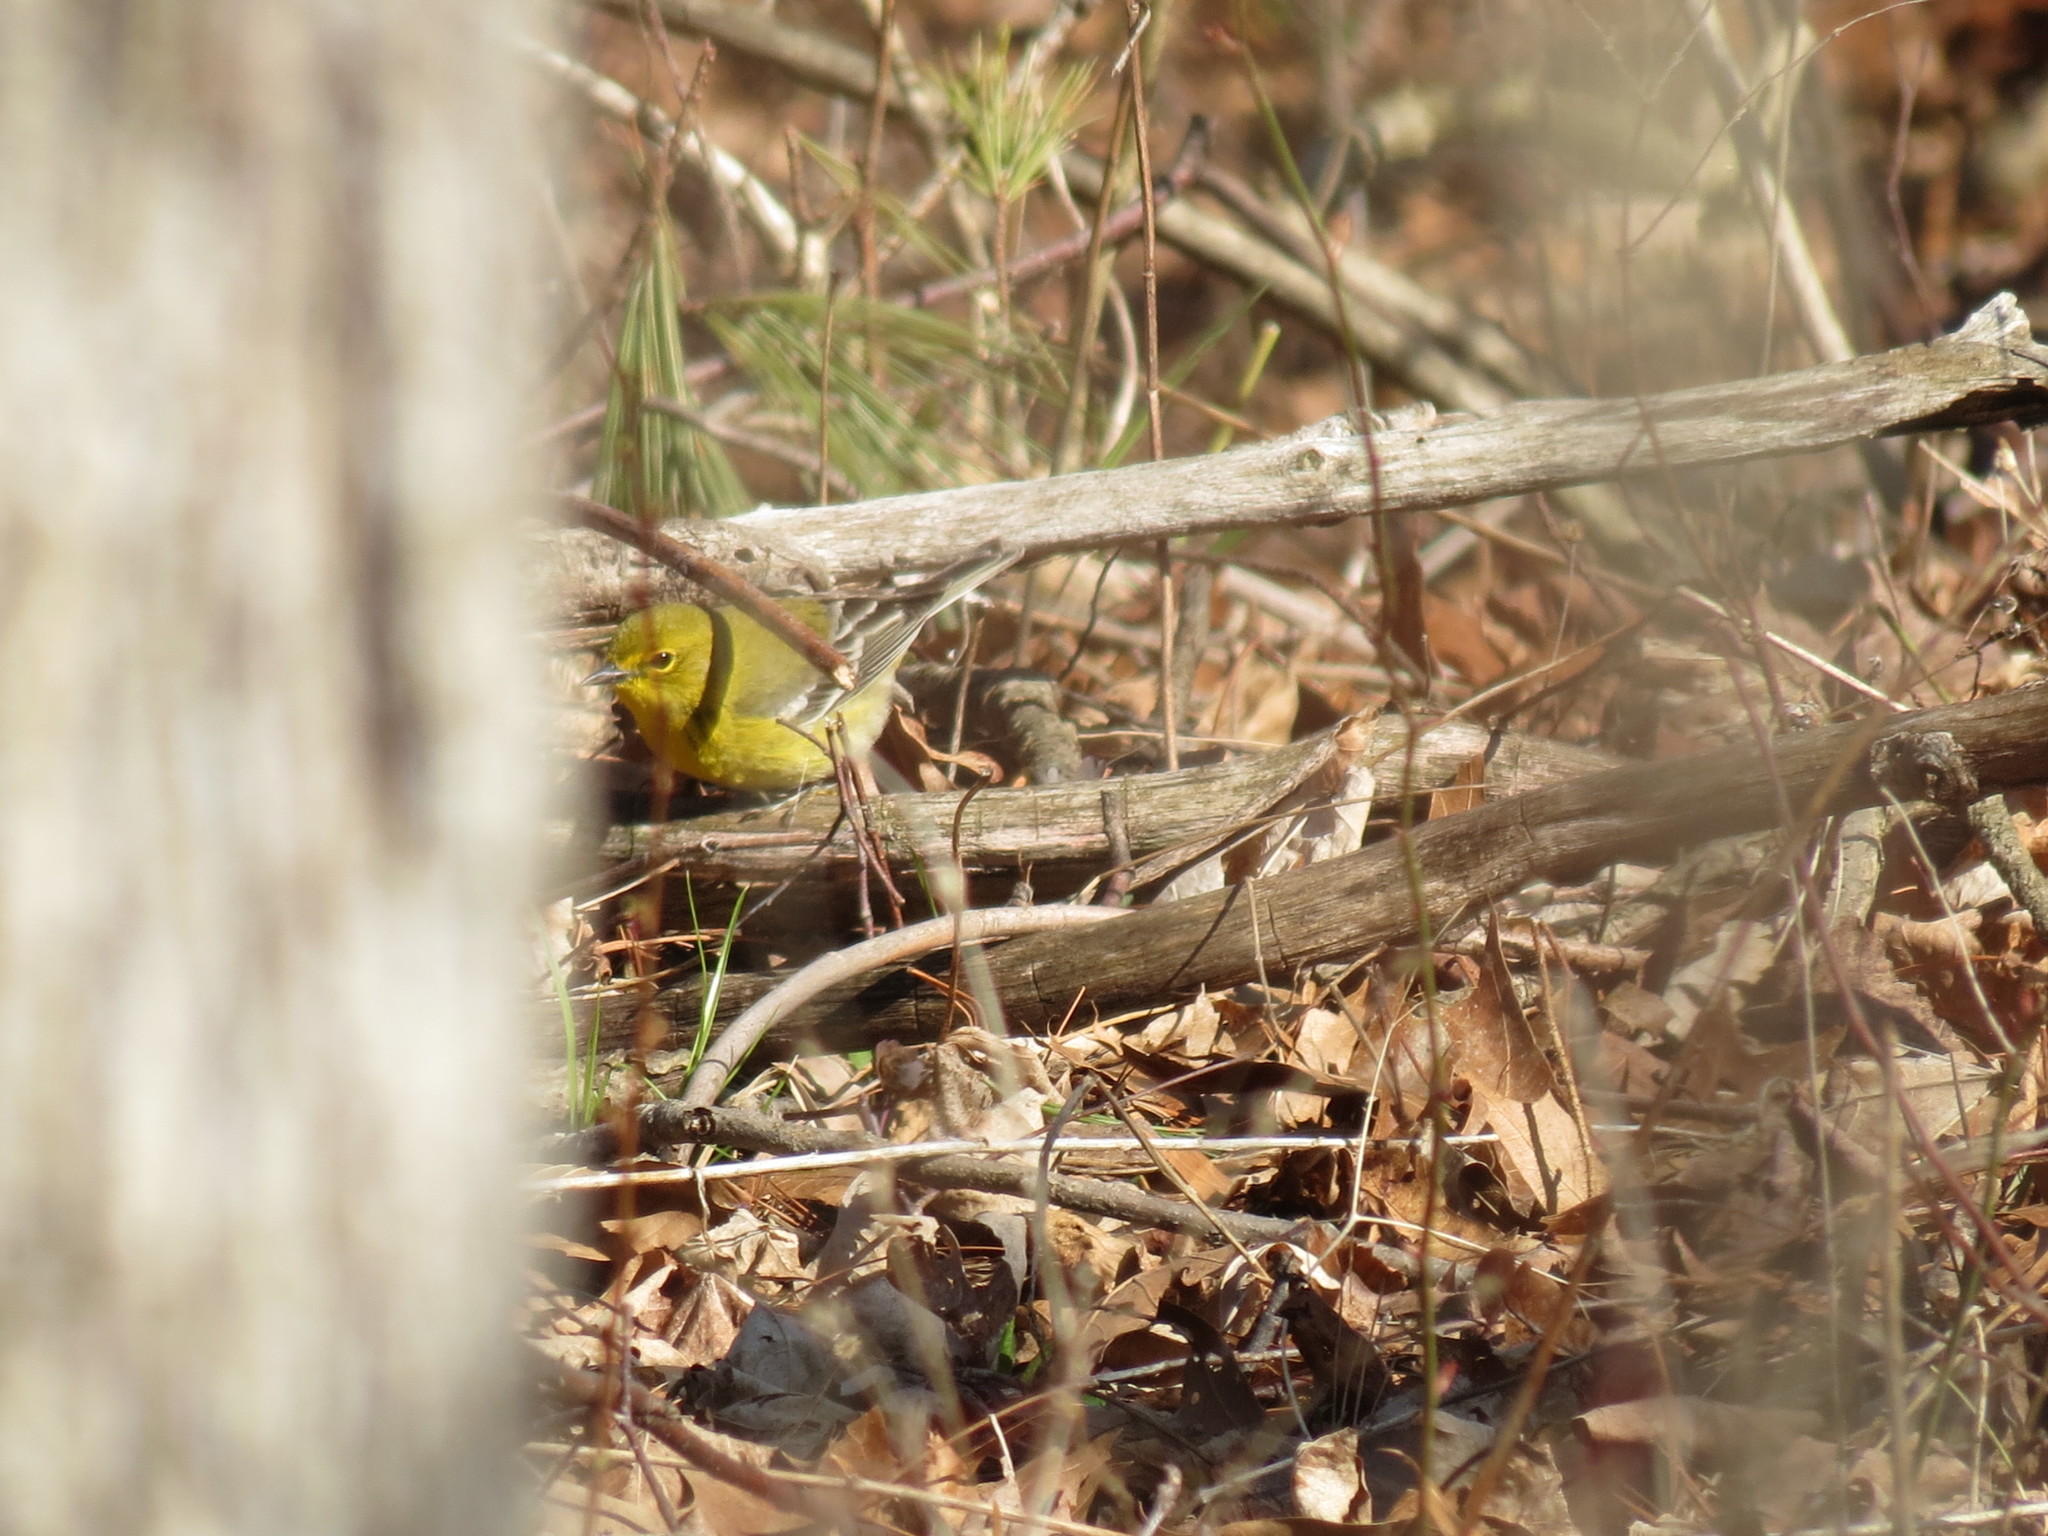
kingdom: Animalia
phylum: Chordata
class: Aves
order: Passeriformes
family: Parulidae
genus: Setophaga
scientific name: Setophaga pinus
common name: Pine warbler
